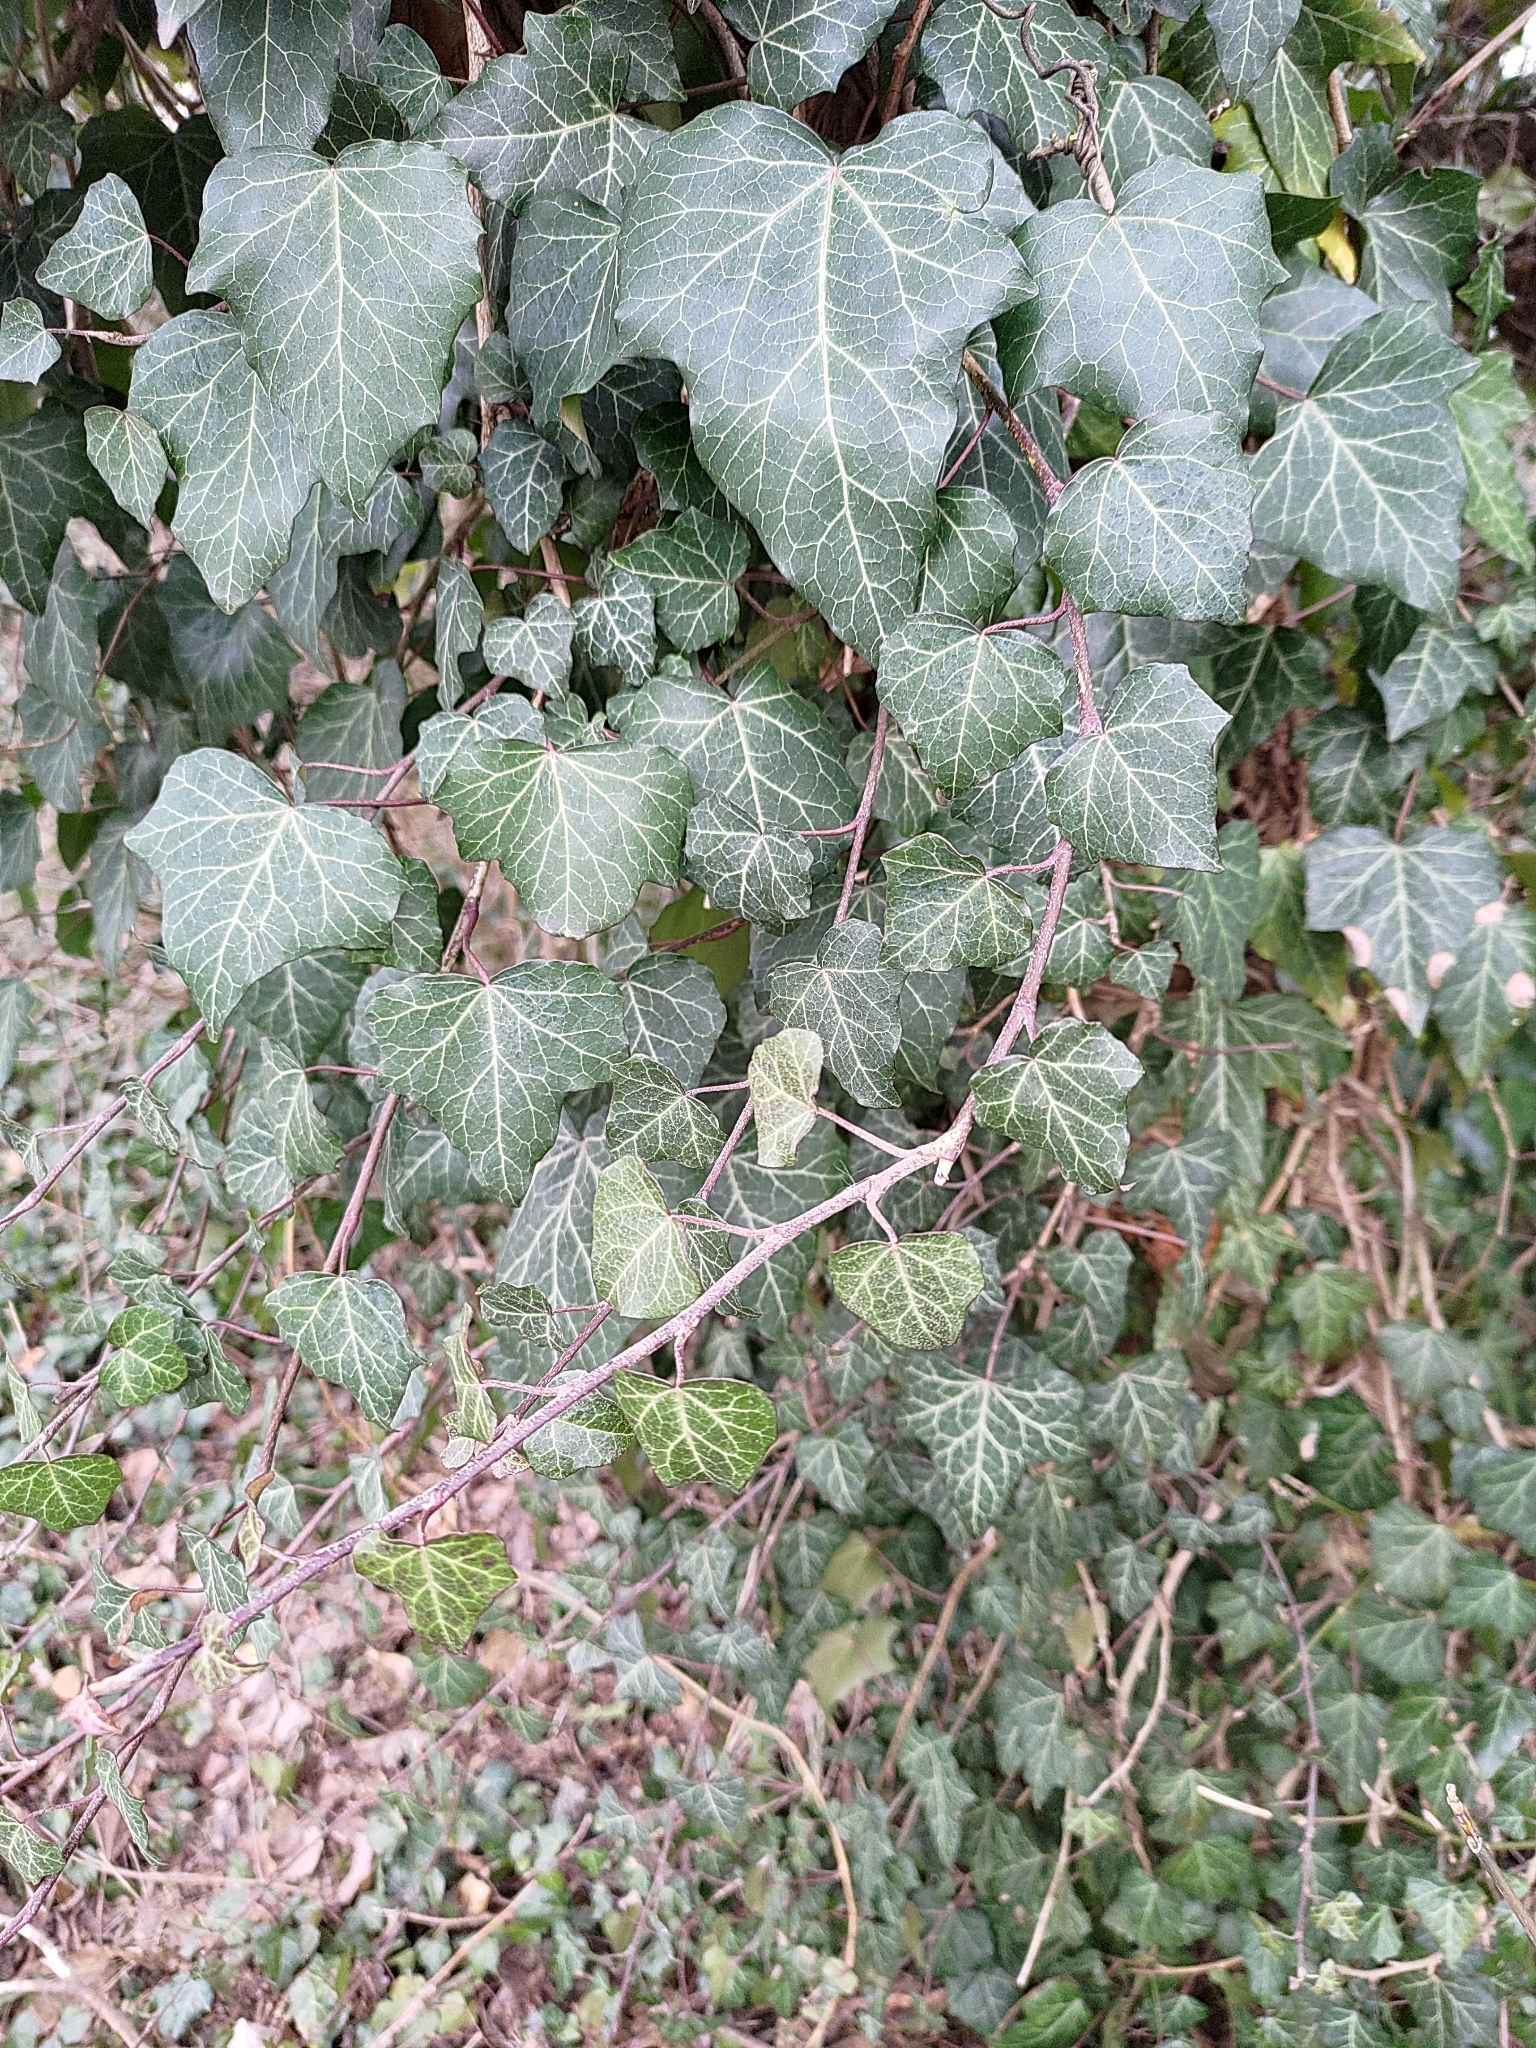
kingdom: Plantae
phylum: Tracheophyta
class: Magnoliopsida
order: Apiales
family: Araliaceae
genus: Hedera
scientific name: Hedera helix
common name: Ivy
